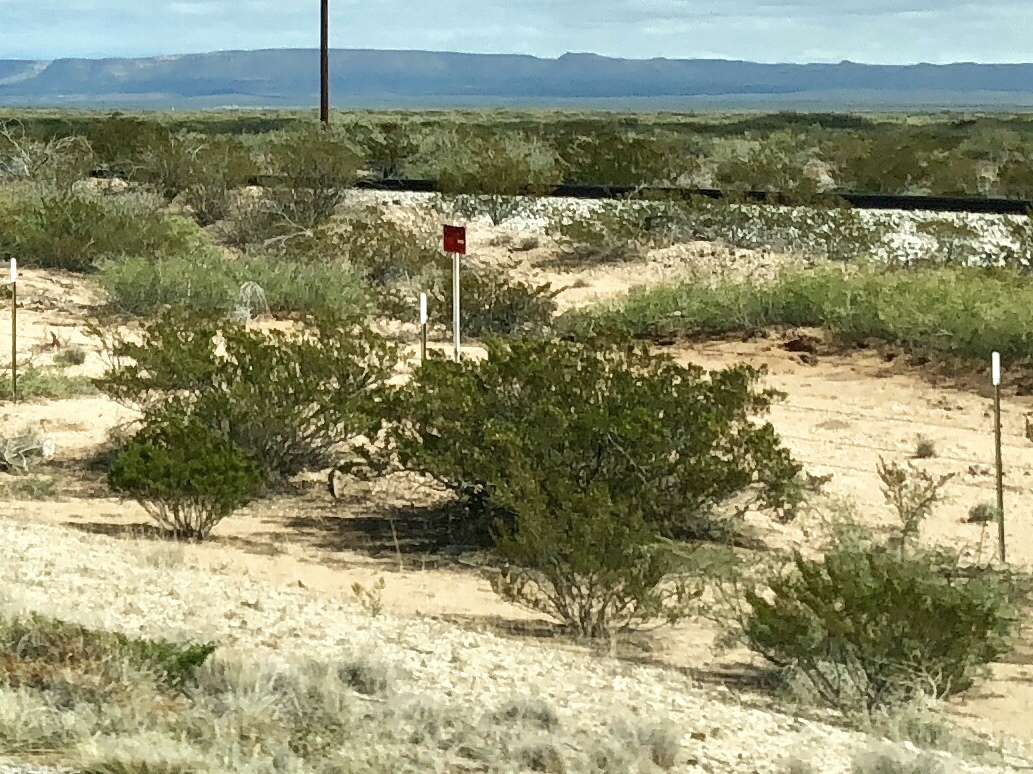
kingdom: Plantae
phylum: Tracheophyta
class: Magnoliopsida
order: Zygophyllales
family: Zygophyllaceae
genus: Larrea
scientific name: Larrea tridentata
